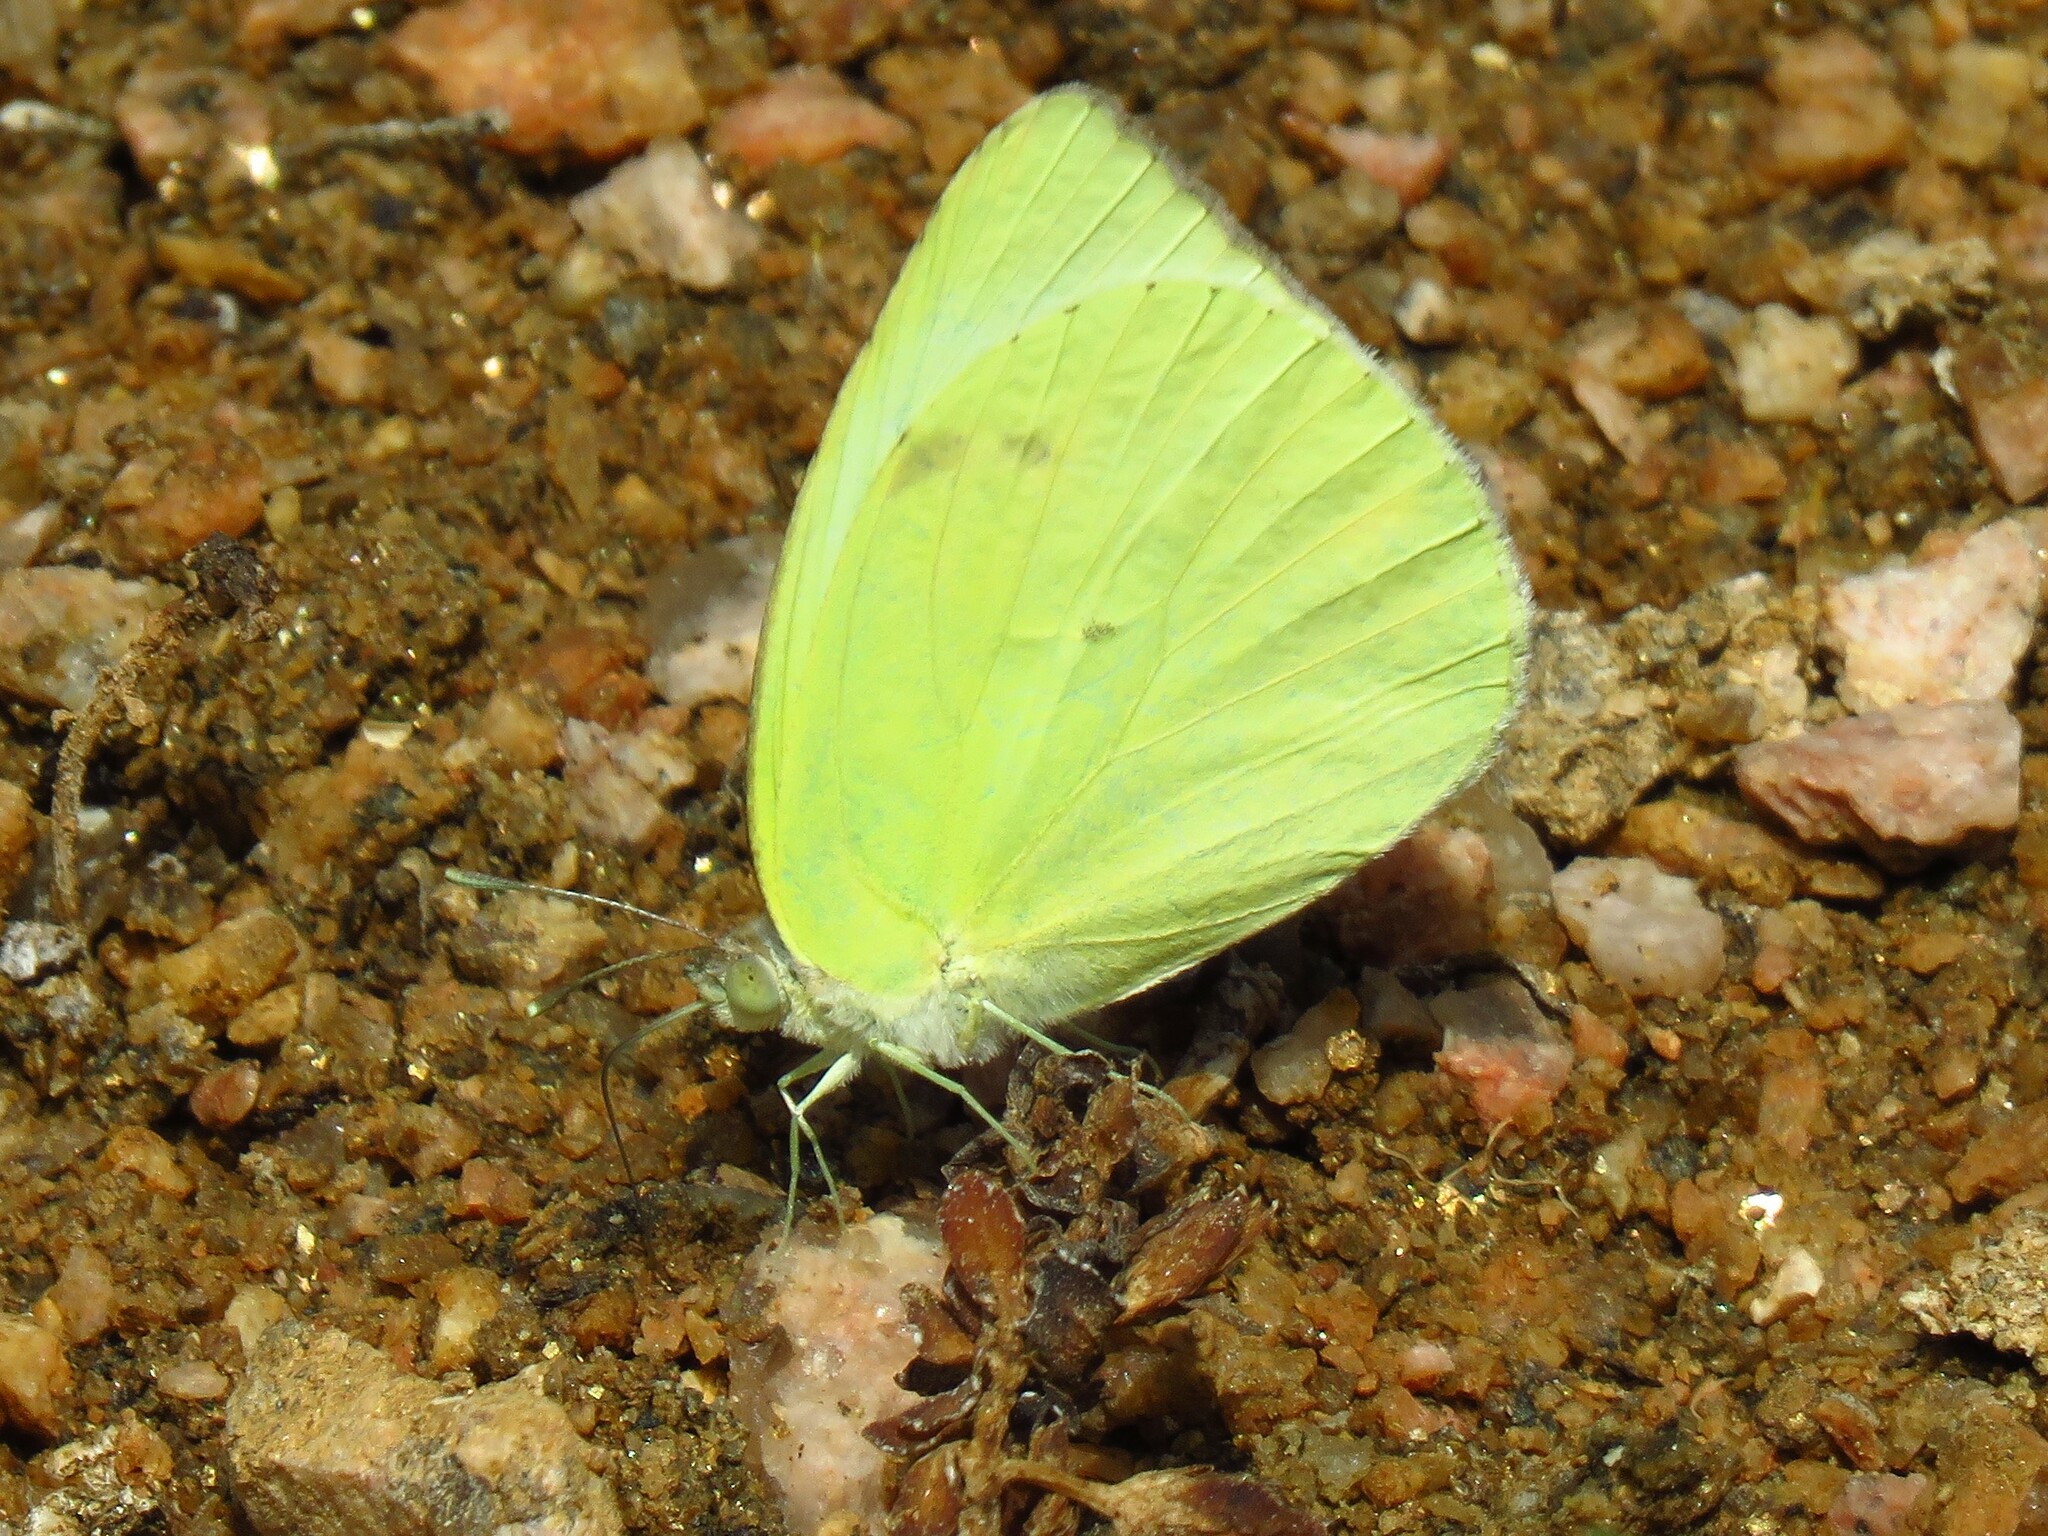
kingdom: Animalia
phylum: Arthropoda
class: Insecta
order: Lepidoptera
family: Pieridae
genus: Kricogonia
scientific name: Kricogonia lyside
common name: Guayacan sulphur,
